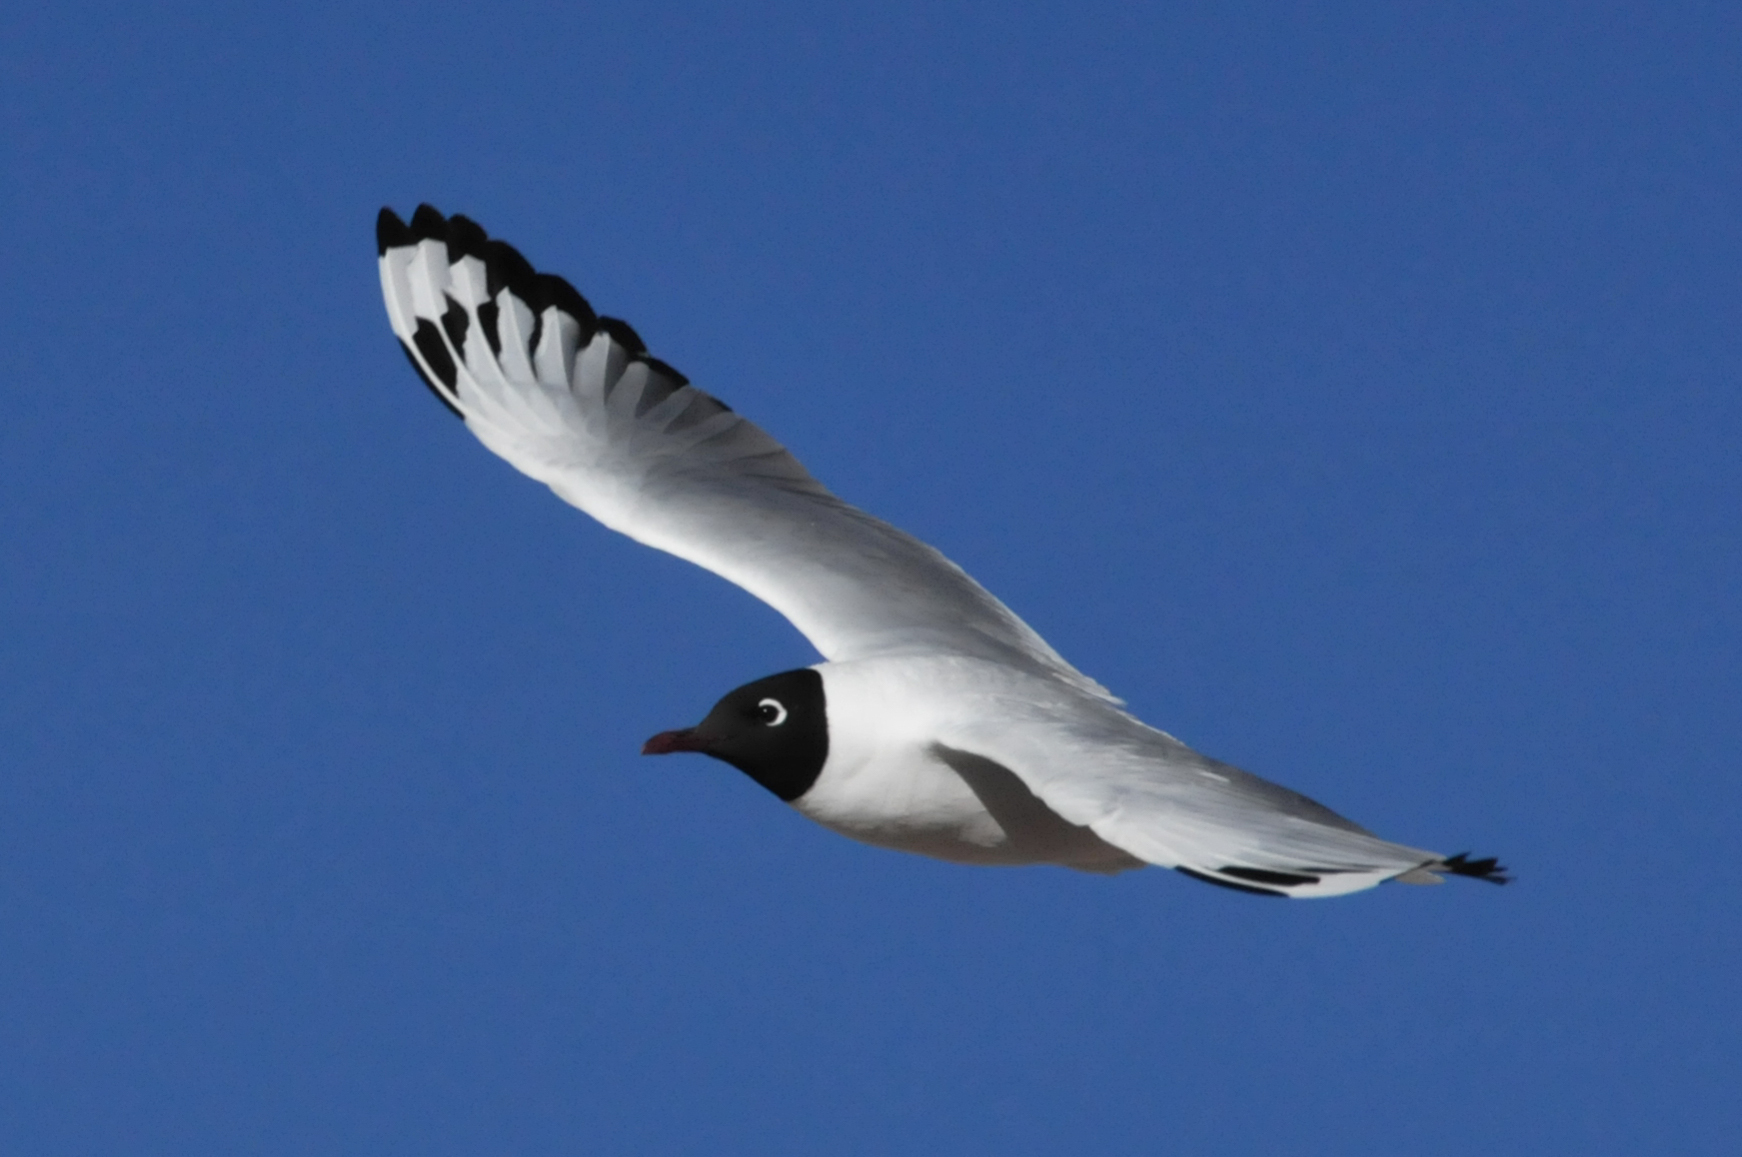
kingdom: Animalia
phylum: Chordata
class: Aves
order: Charadriiformes
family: Laridae
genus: Chroicocephalus
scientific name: Chroicocephalus serranus
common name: Andean gull
